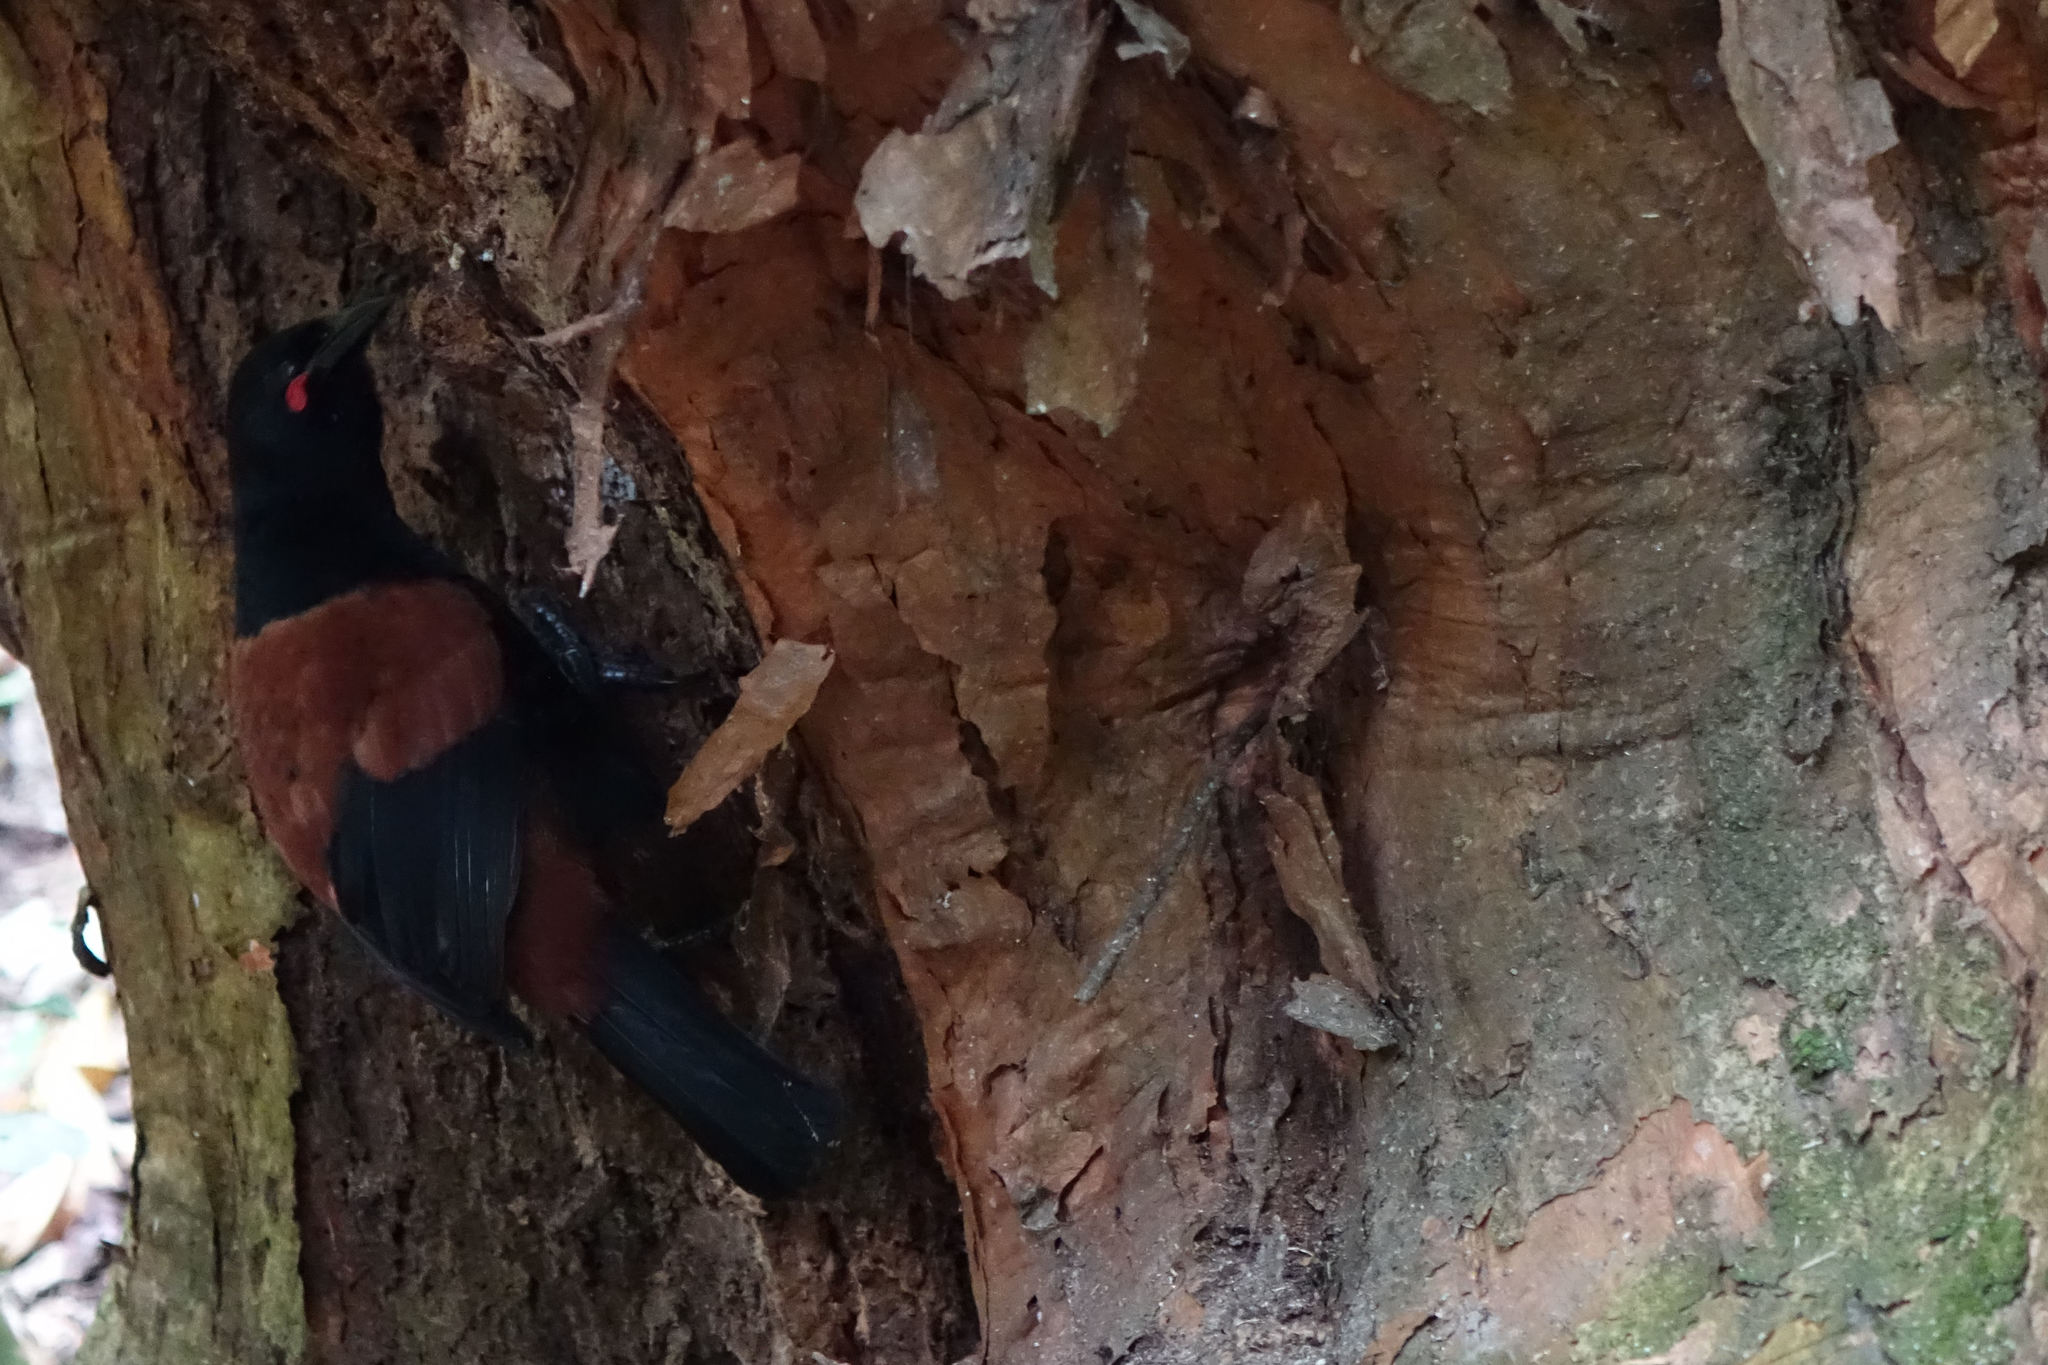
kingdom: Animalia
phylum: Chordata
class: Aves
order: Passeriformes
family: Callaeatidae
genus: Philesturnus
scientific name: Philesturnus carunculatus
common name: South island saddleback
